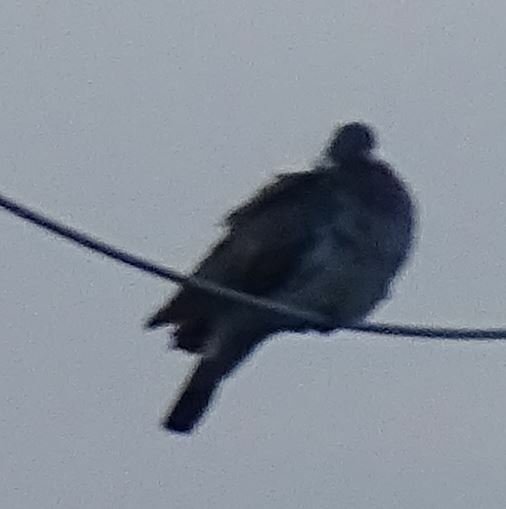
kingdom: Animalia
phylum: Chordata
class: Aves
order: Columbiformes
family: Columbidae
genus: Columba
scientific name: Columba palumbus
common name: Common wood pigeon
